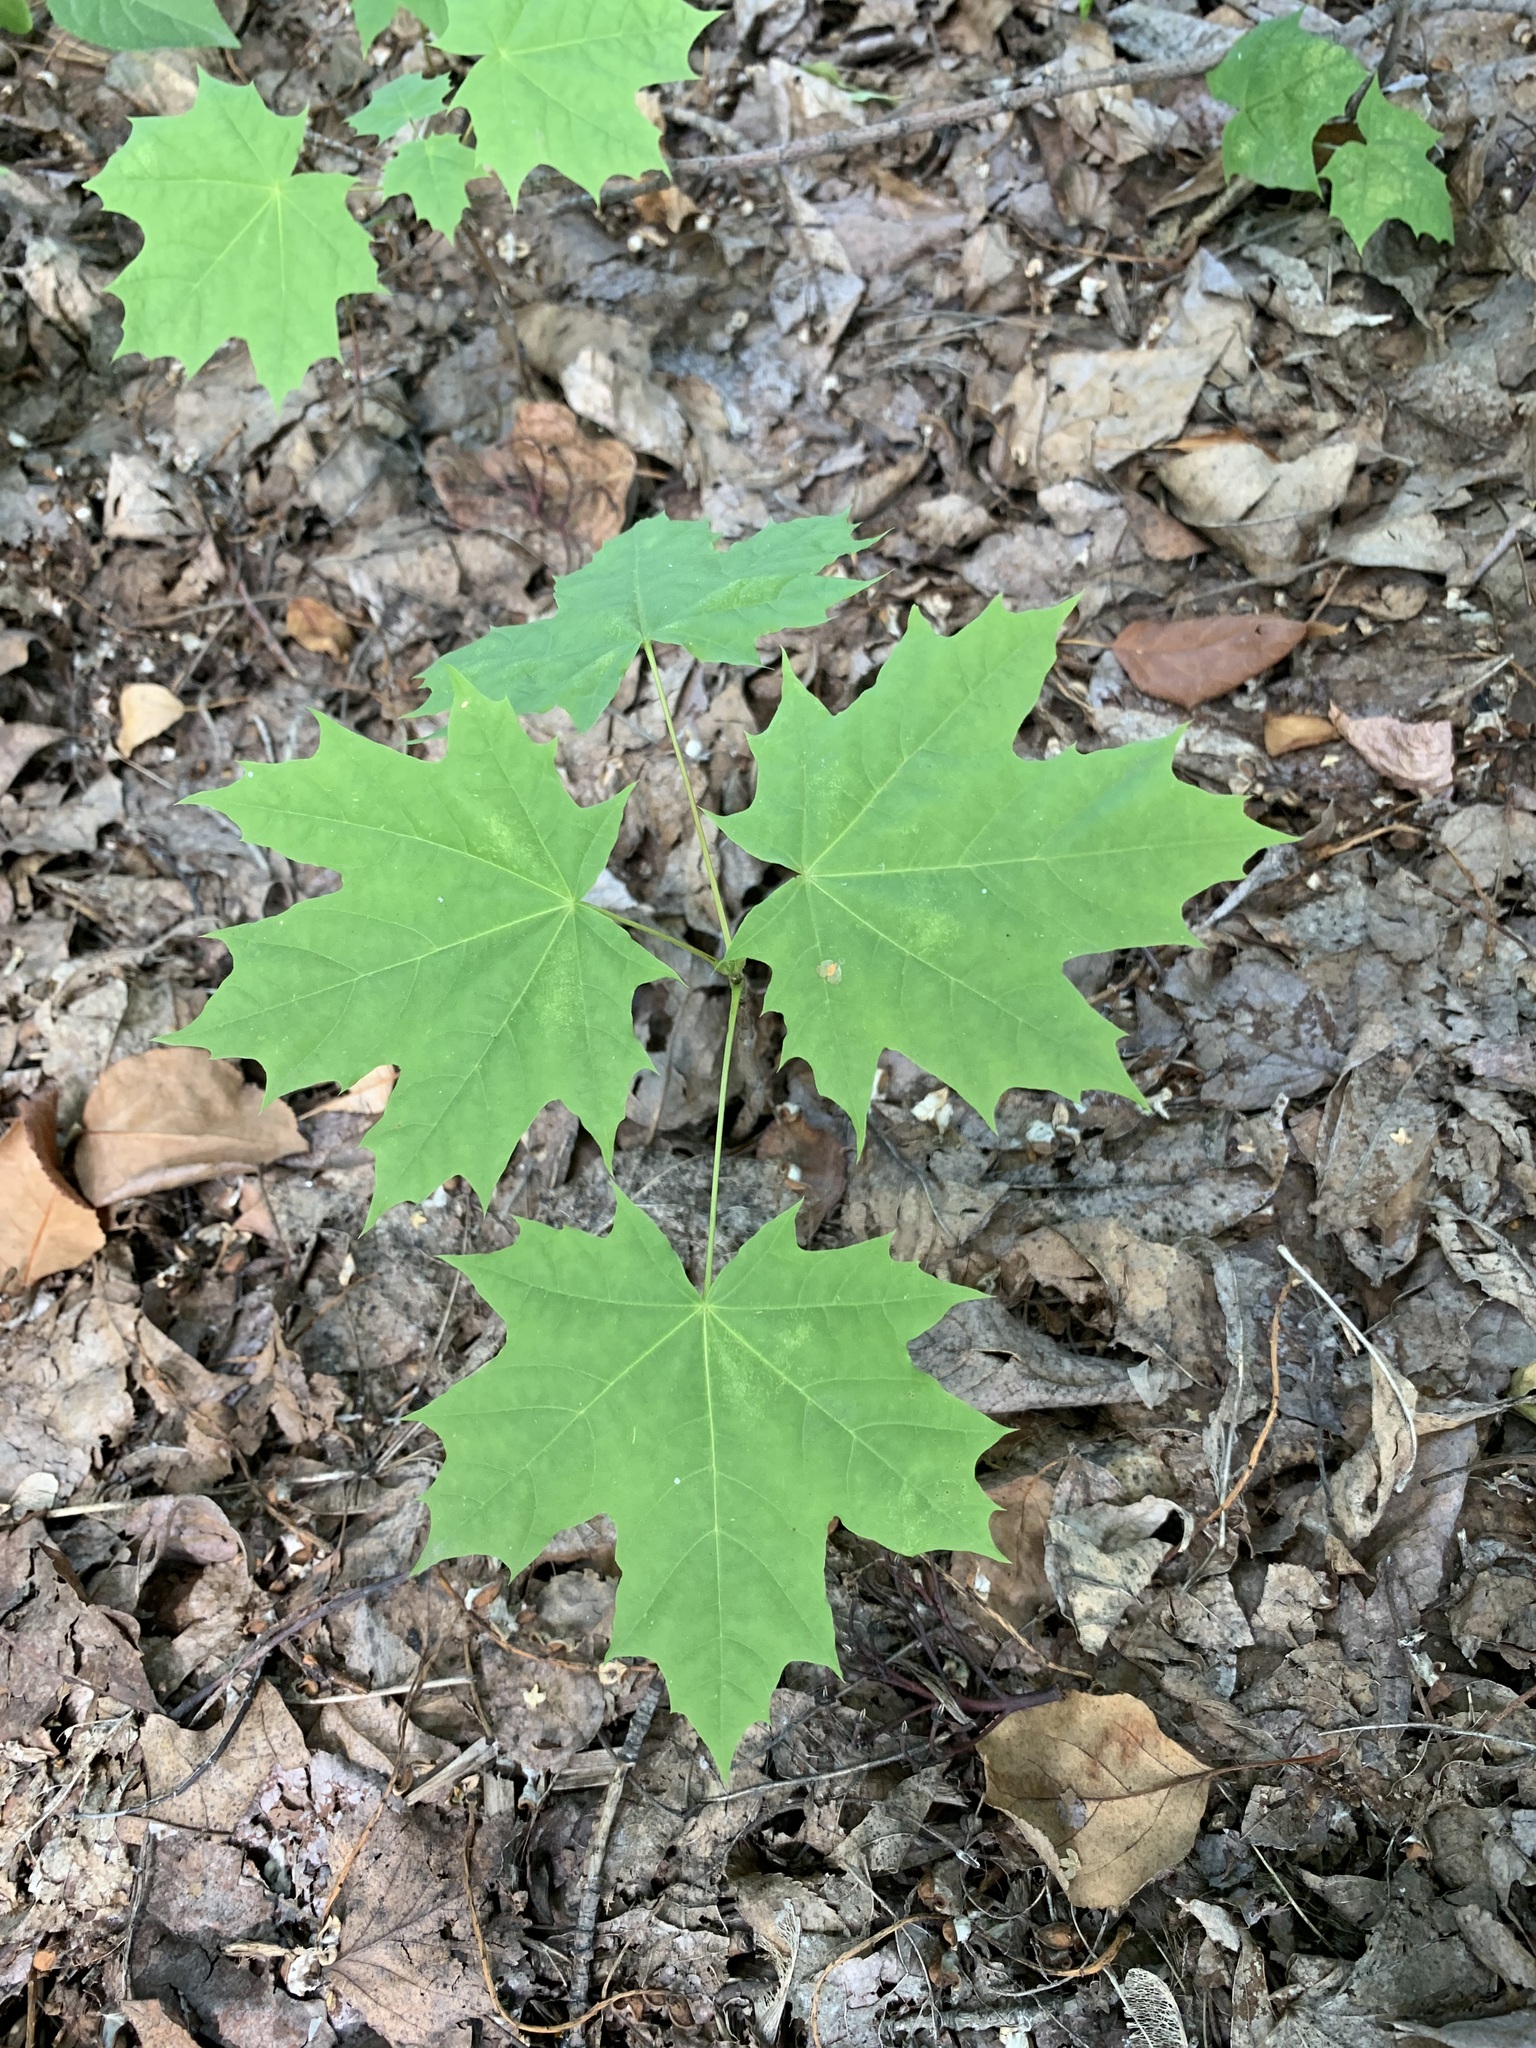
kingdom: Plantae
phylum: Tracheophyta
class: Magnoliopsida
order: Sapindales
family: Sapindaceae
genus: Acer
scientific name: Acer platanoides
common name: Norway maple
